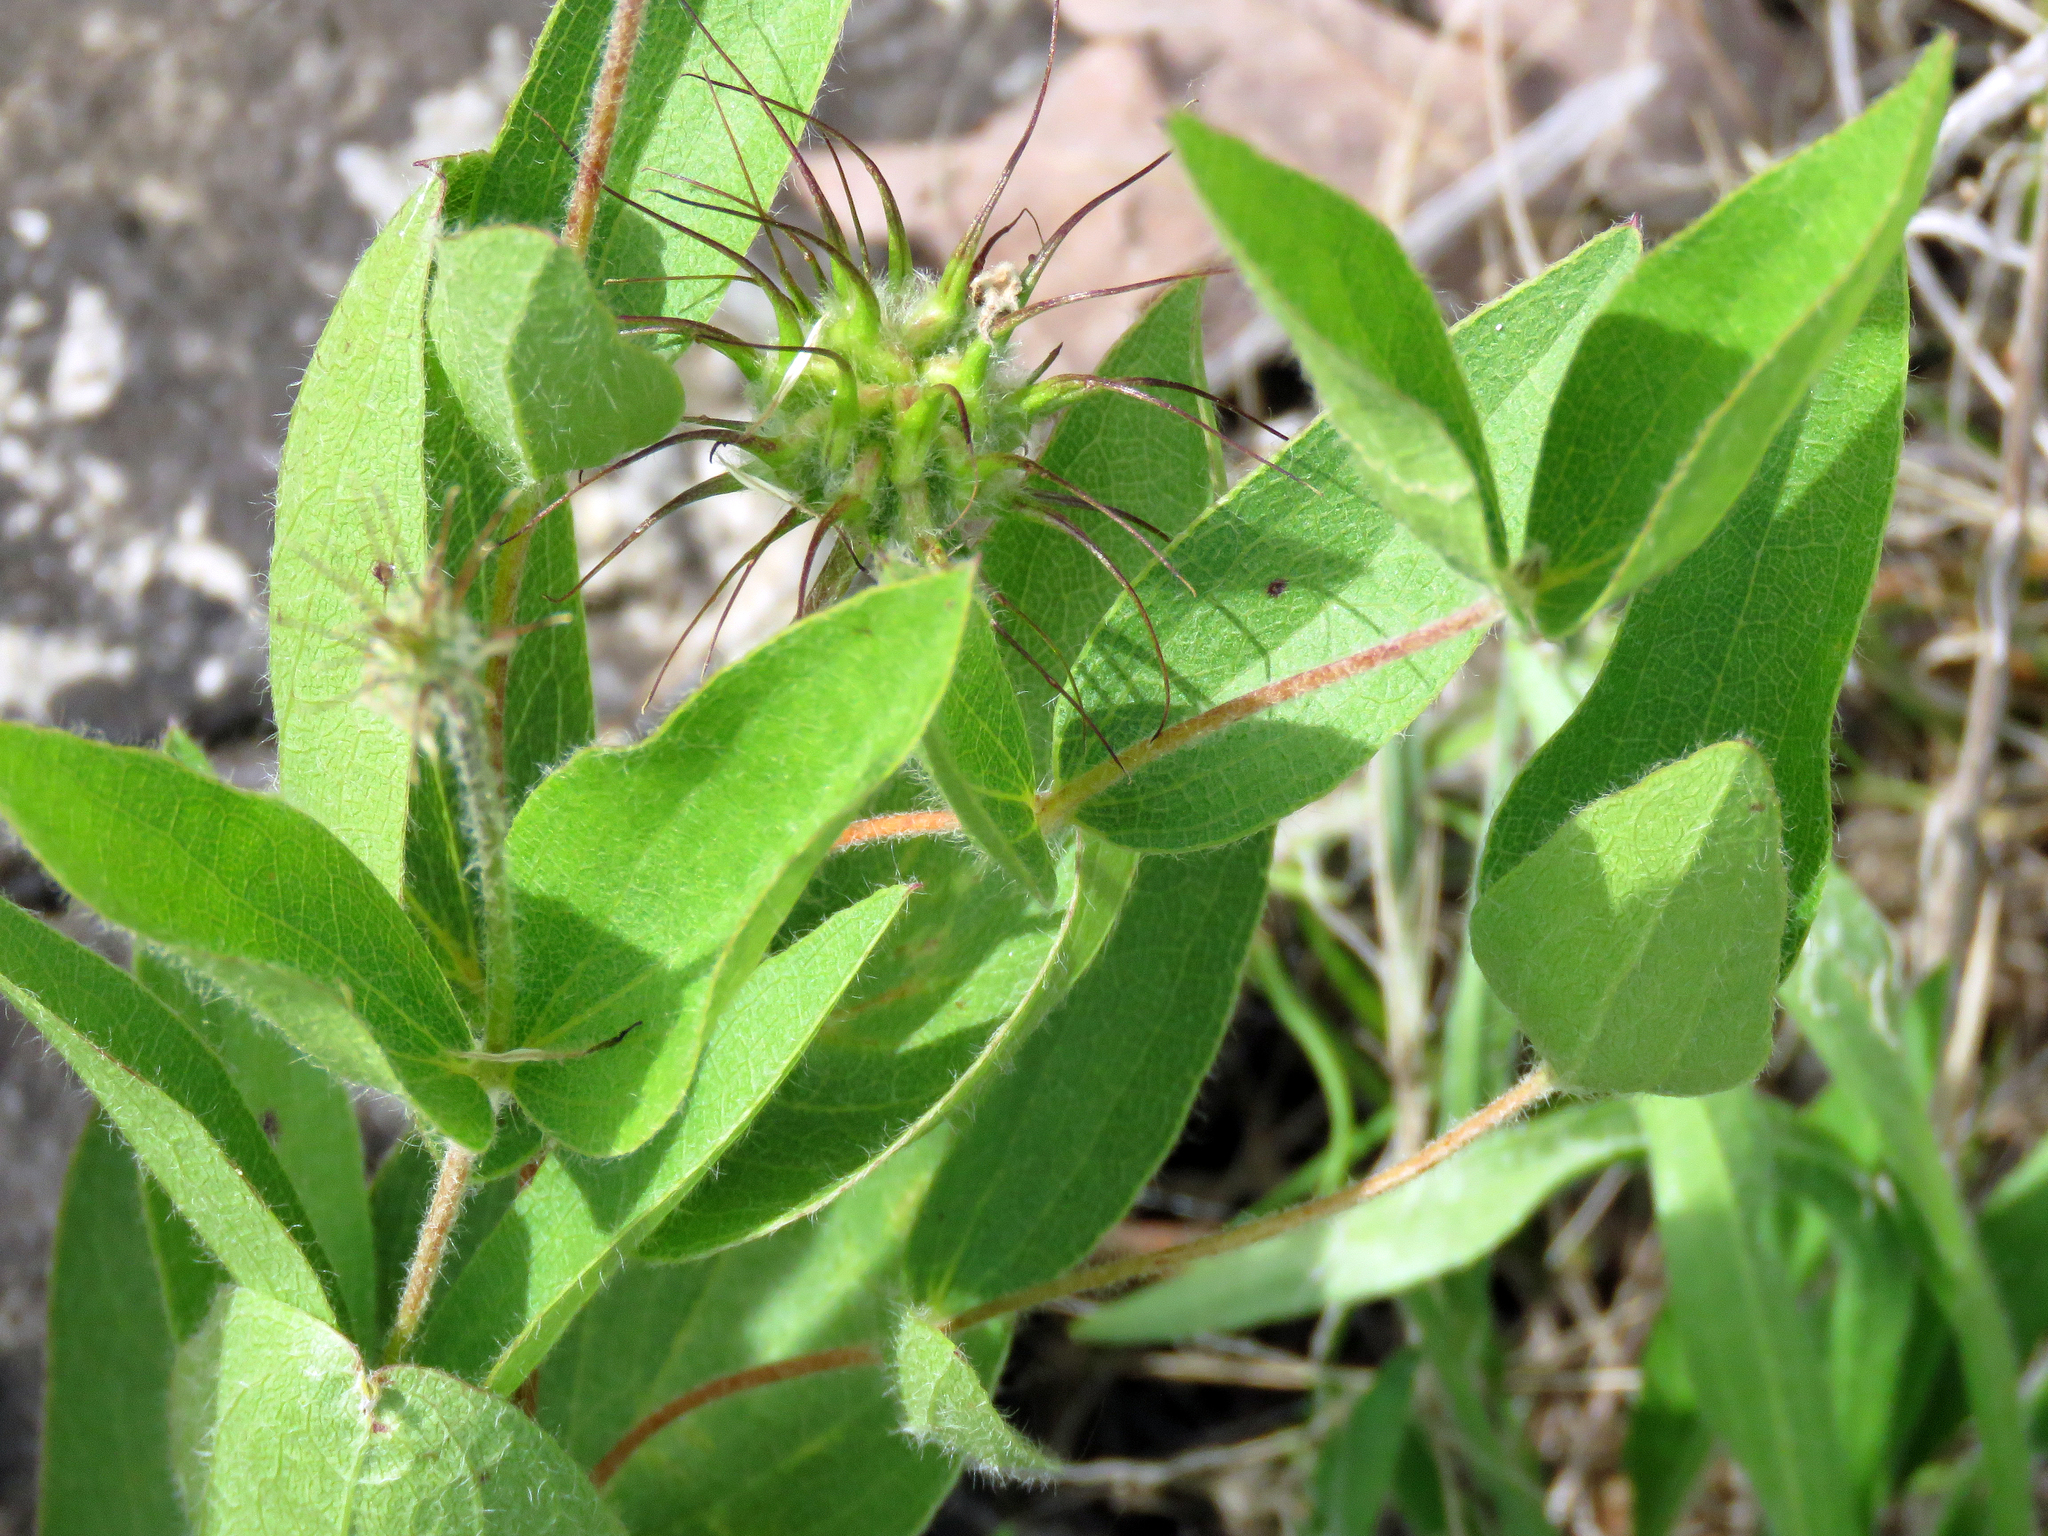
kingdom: Plantae
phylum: Tracheophyta
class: Magnoliopsida
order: Ranunculales
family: Ranunculaceae
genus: Clematis
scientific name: Clematis fremontii
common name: Fremont's clematis
